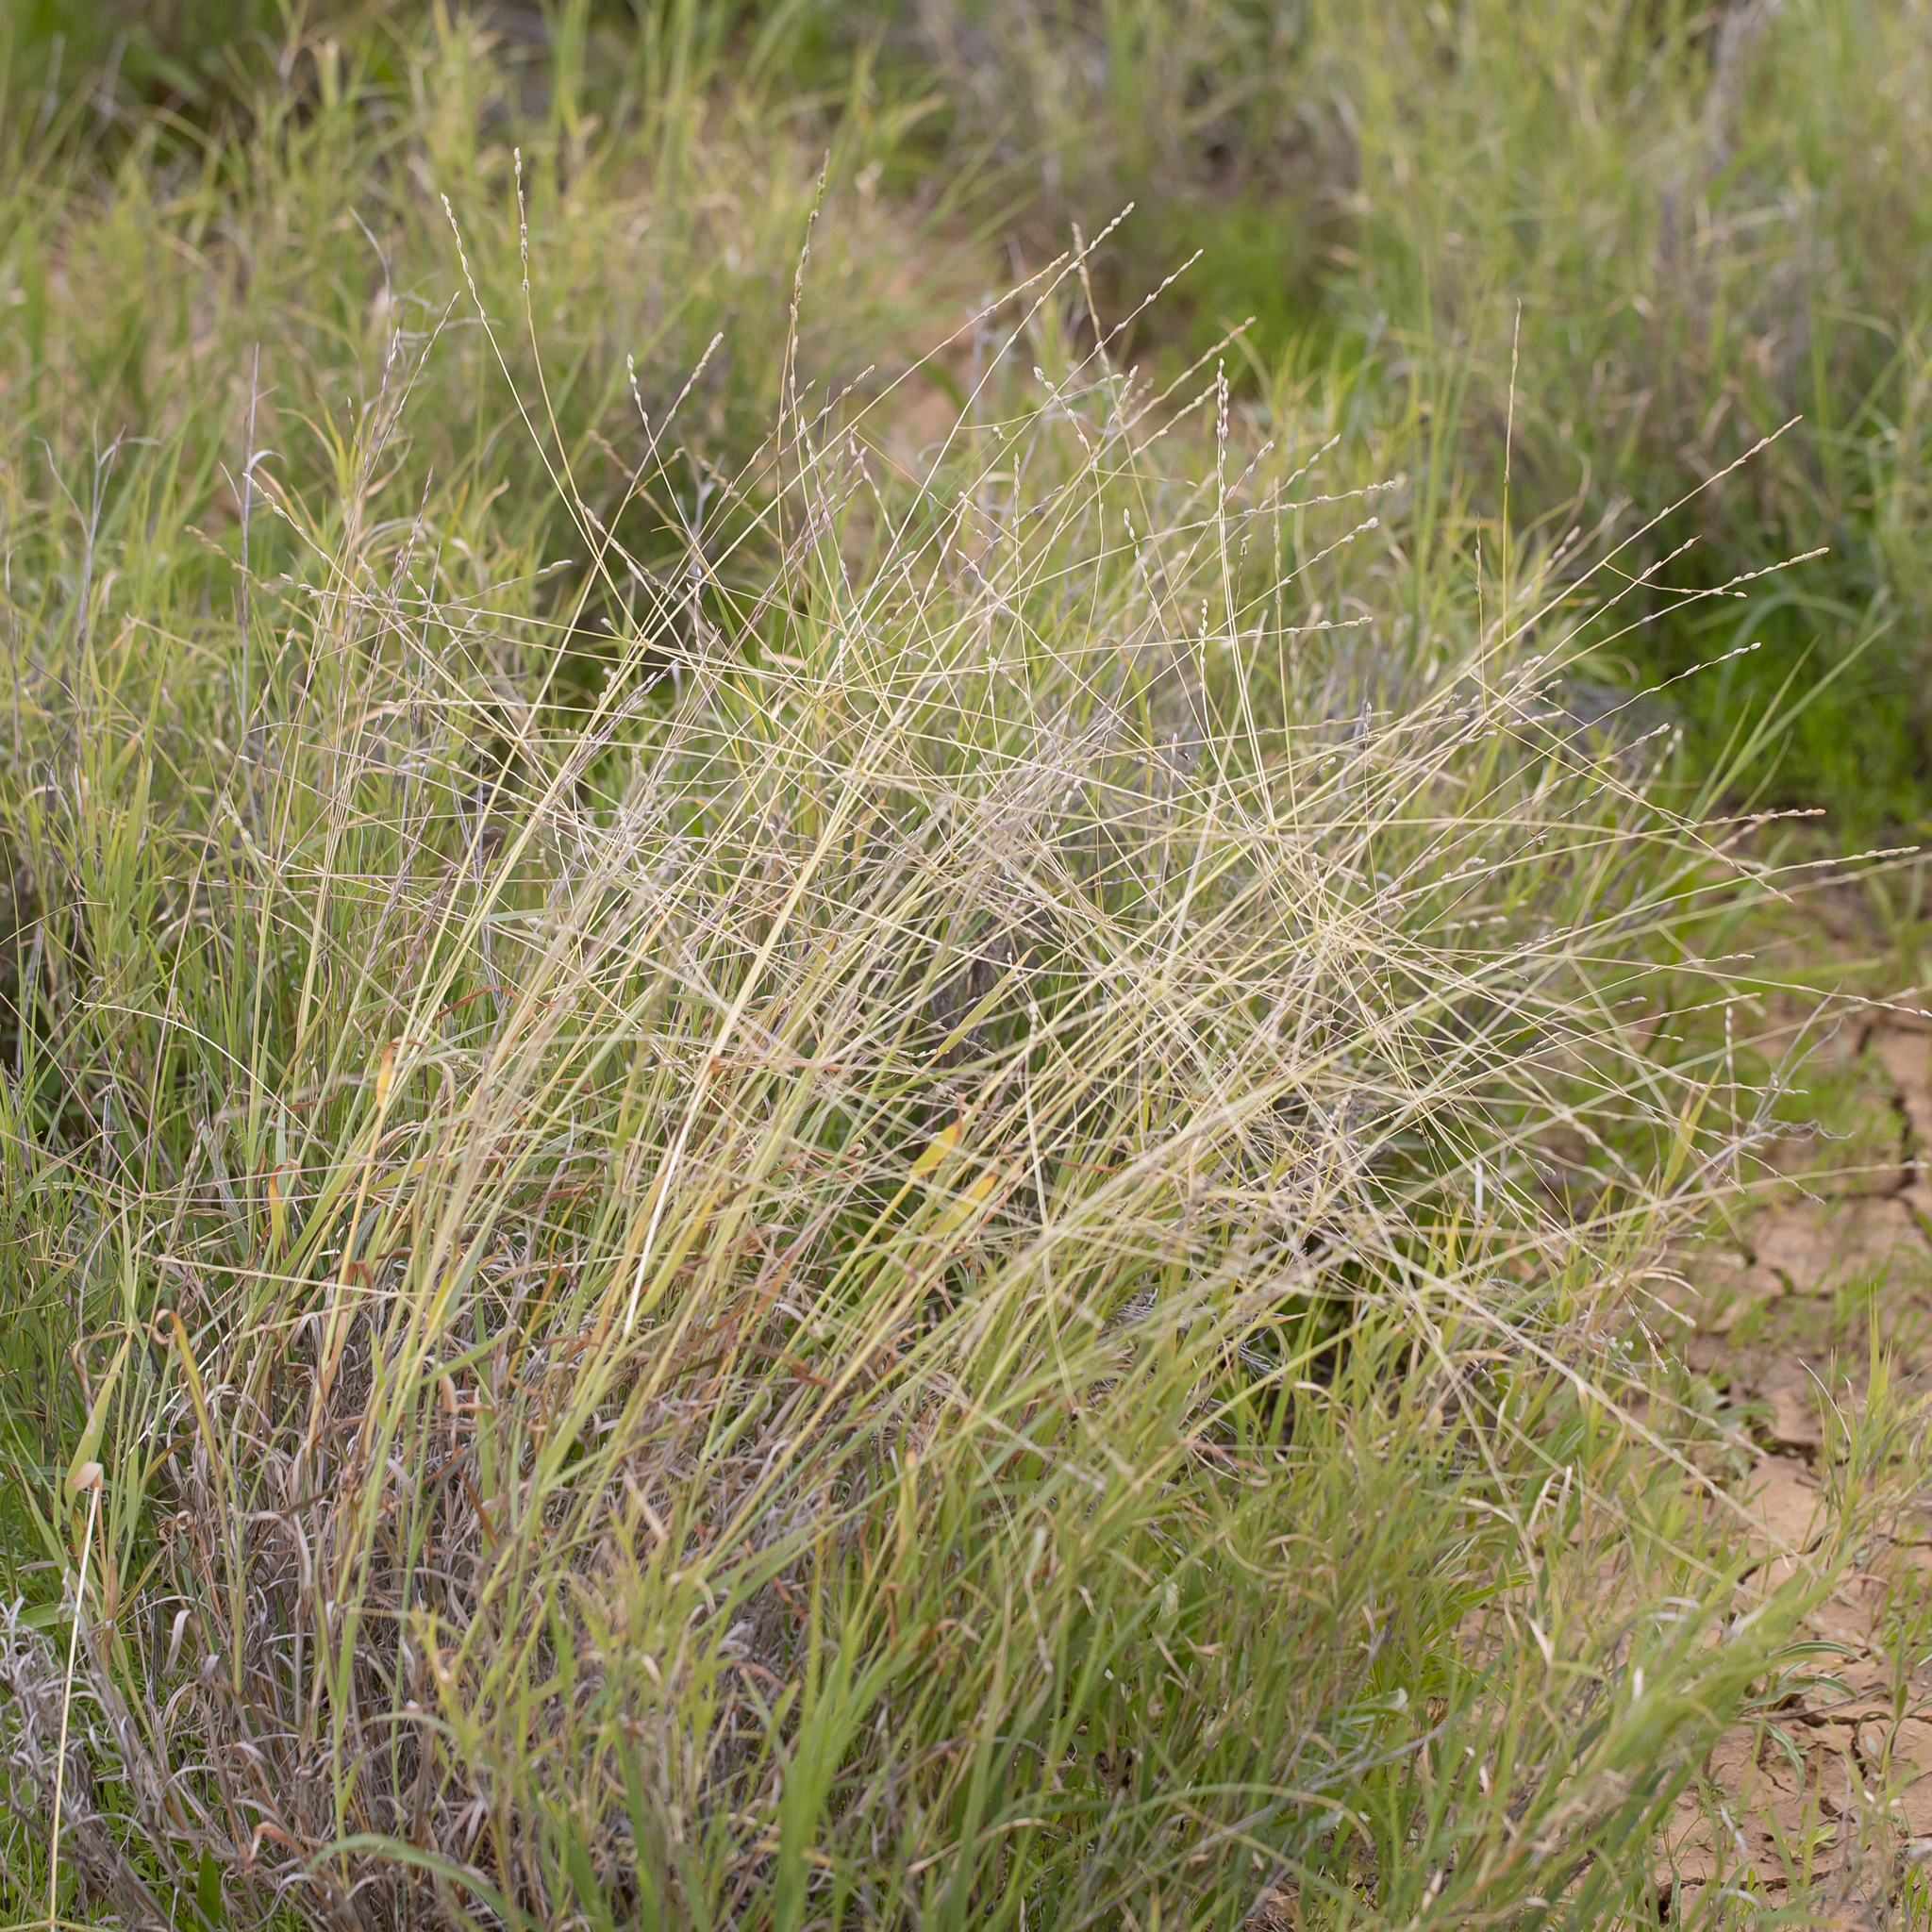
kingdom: Plantae
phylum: Tracheophyta
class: Liliopsida
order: Poales
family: Poaceae
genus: Digitaria
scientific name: Digitaria divaricatissima
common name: Crabgrass
